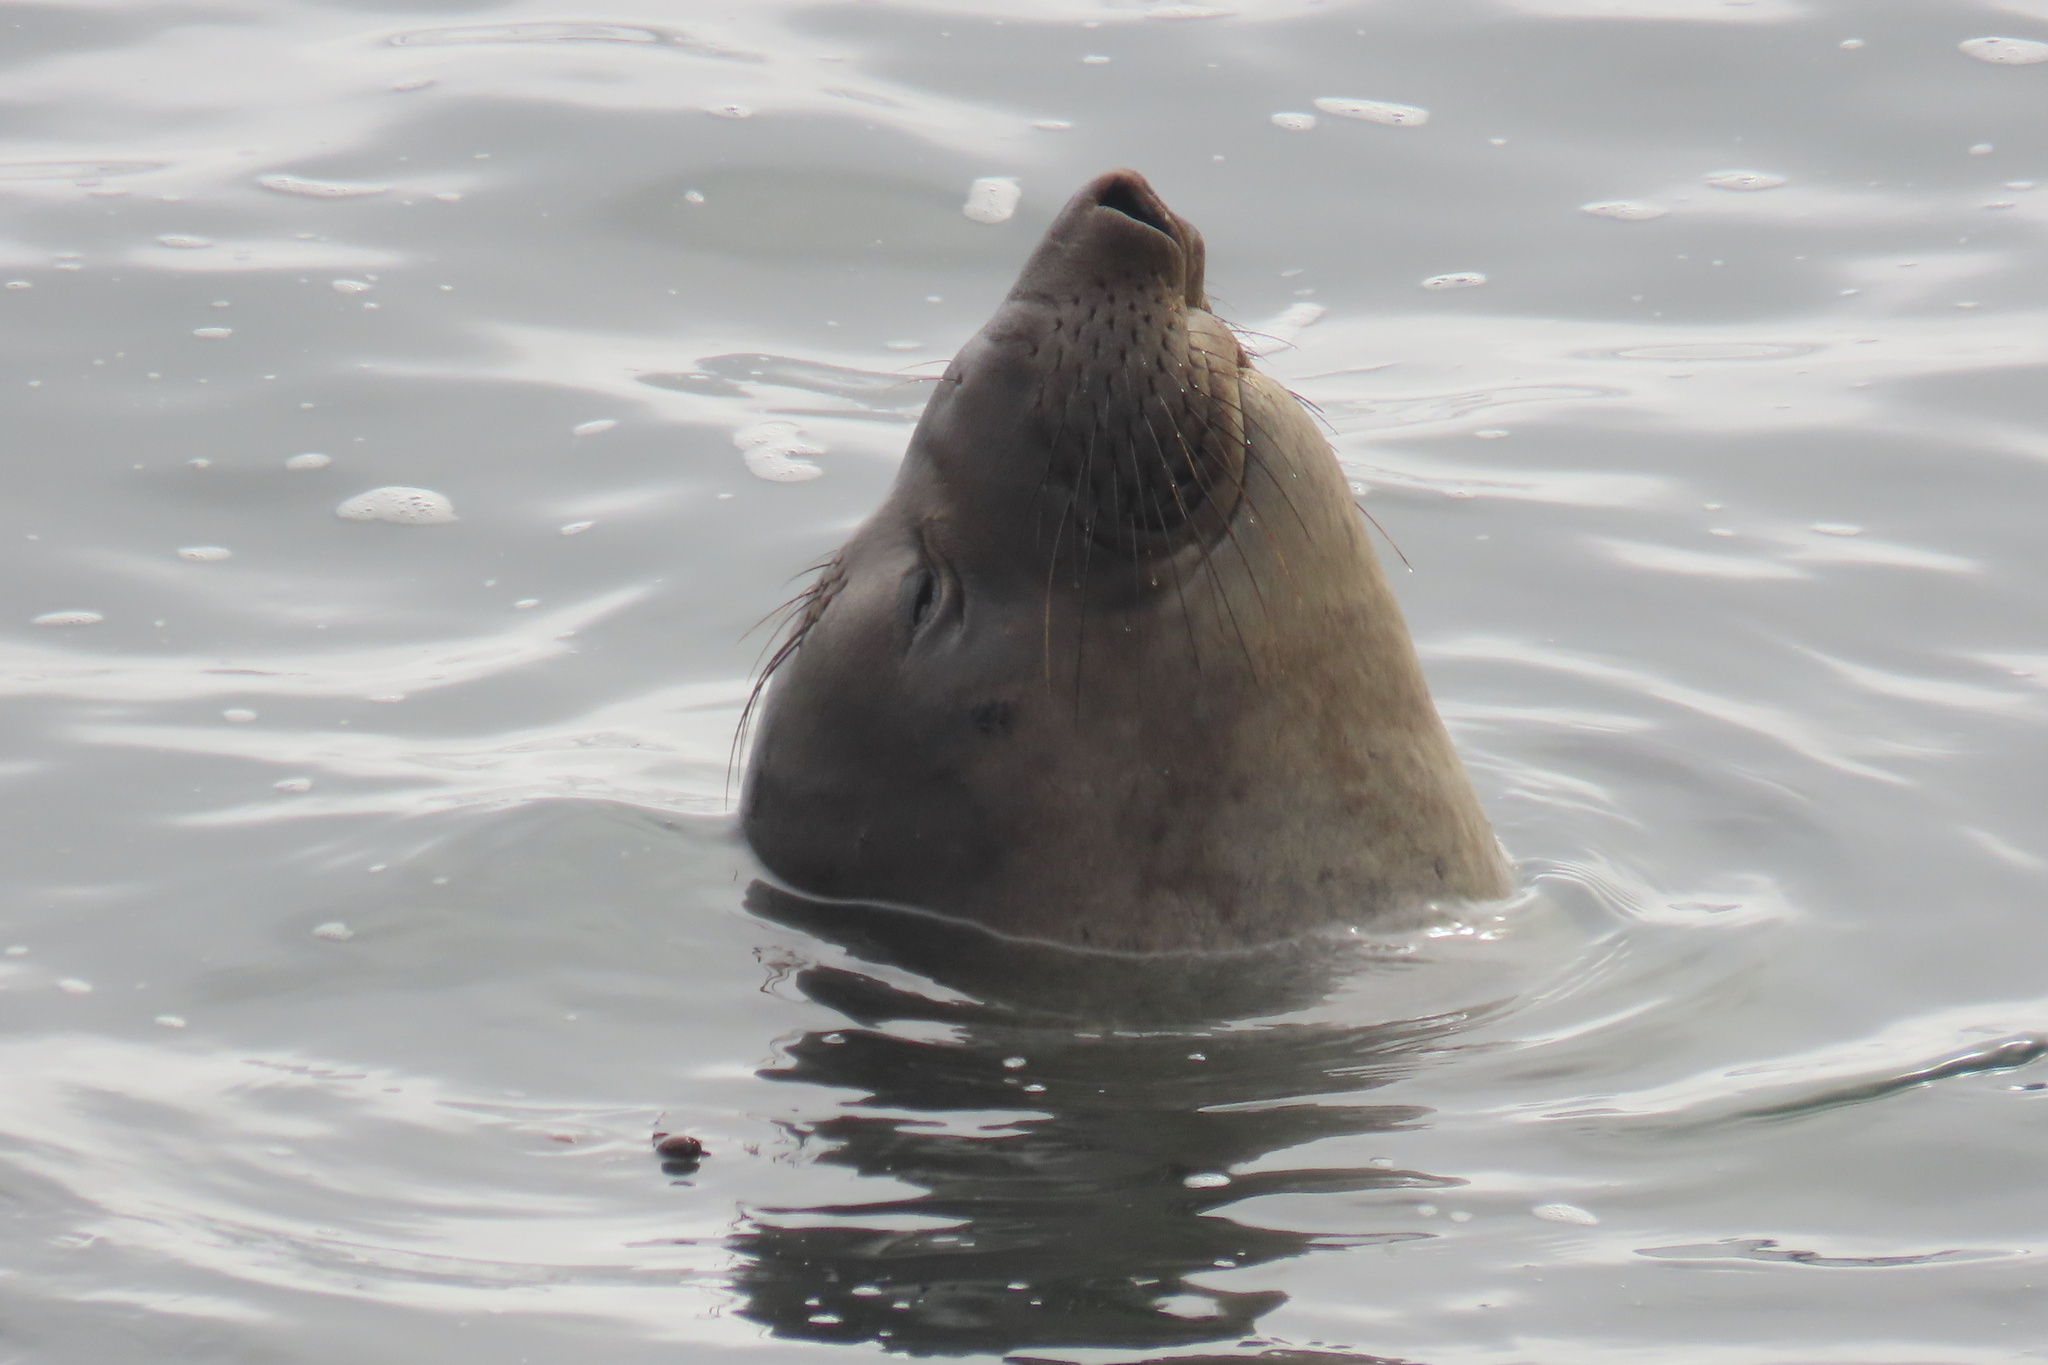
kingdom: Animalia
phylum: Chordata
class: Mammalia
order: Carnivora
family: Phocidae
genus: Mirounga
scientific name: Mirounga angustirostris
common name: Northern elephant seal
